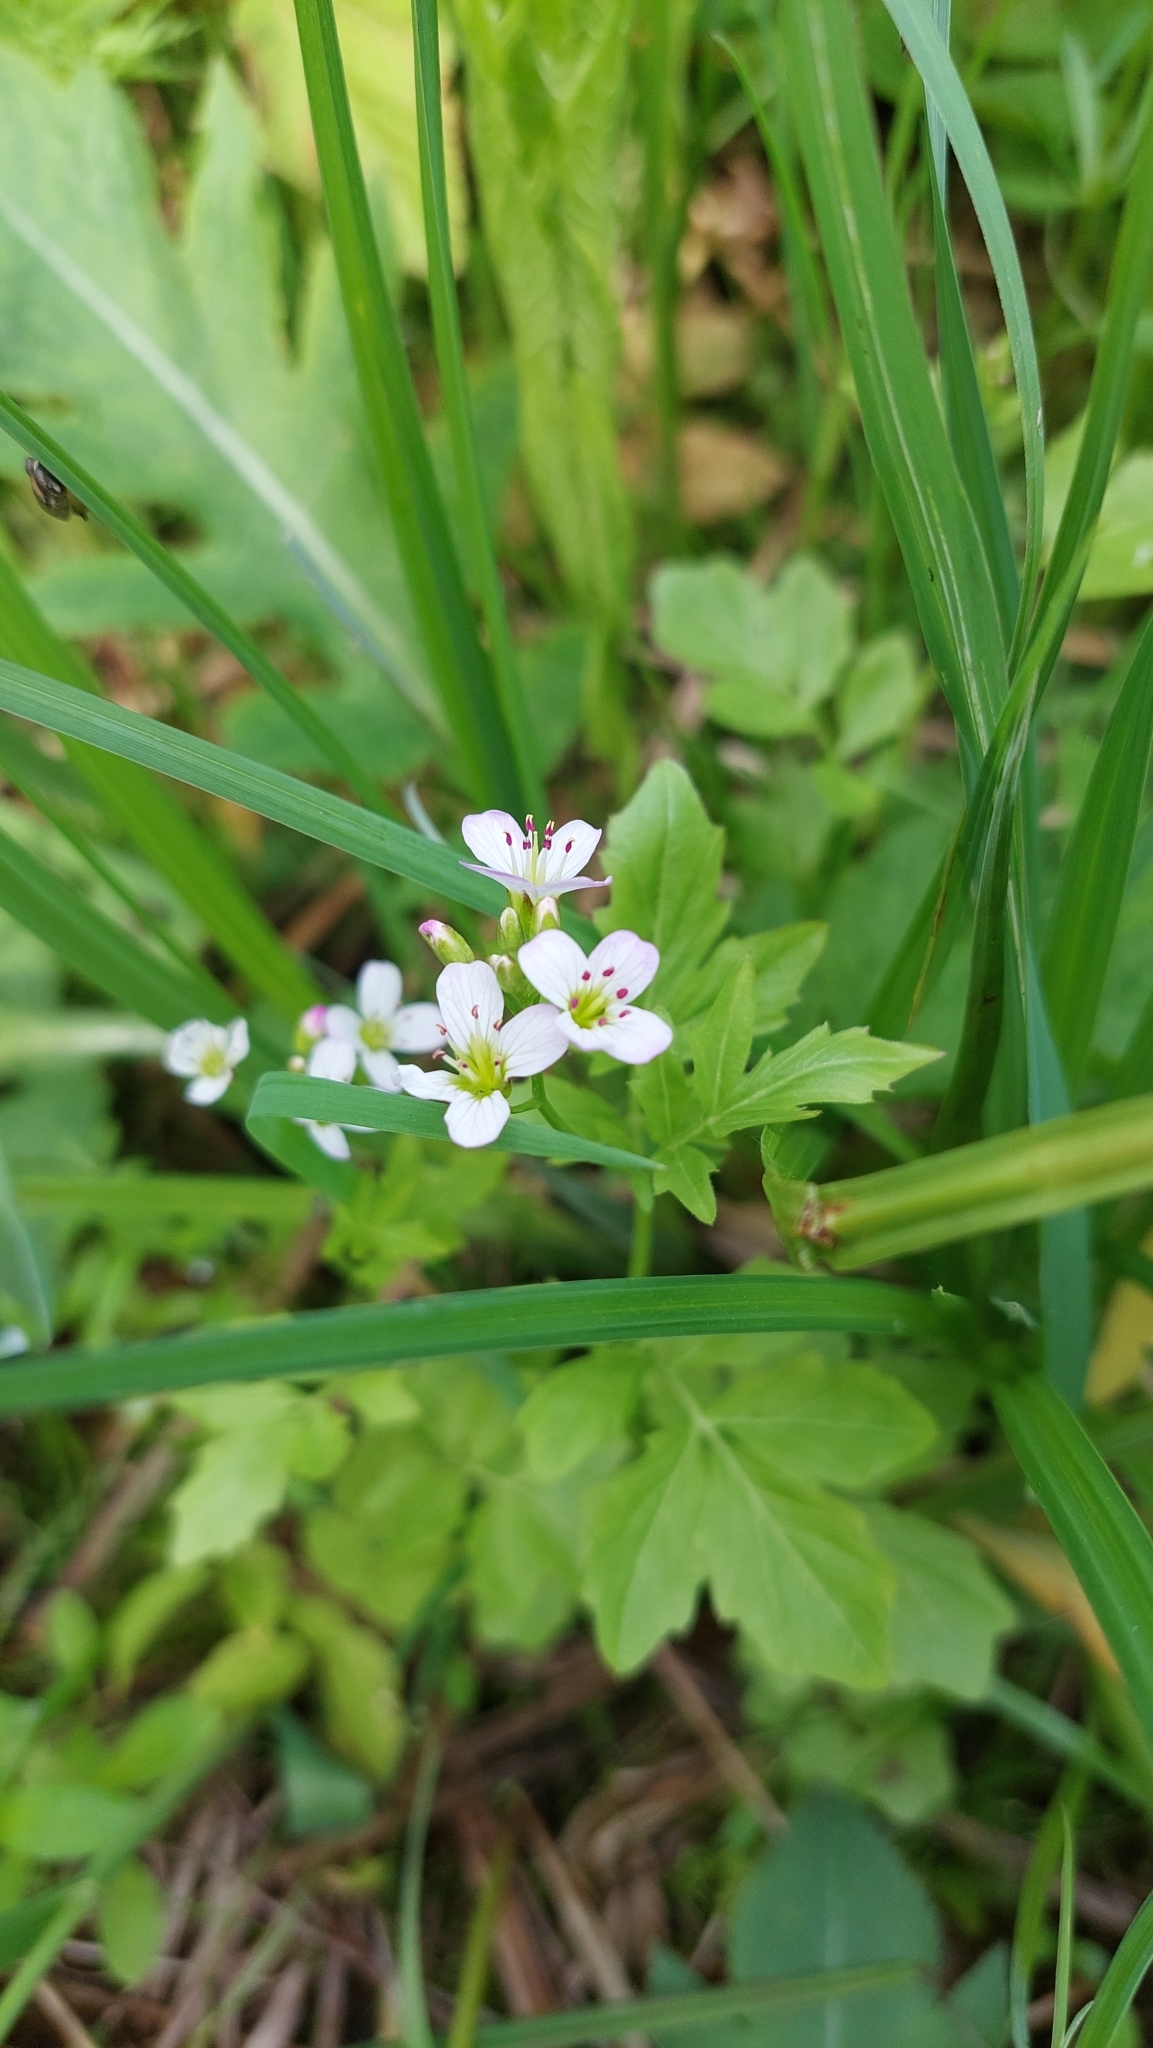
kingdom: Plantae
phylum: Tracheophyta
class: Magnoliopsida
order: Brassicales
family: Brassicaceae
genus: Cardamine
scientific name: Cardamine amara
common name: Large bitter-cress
